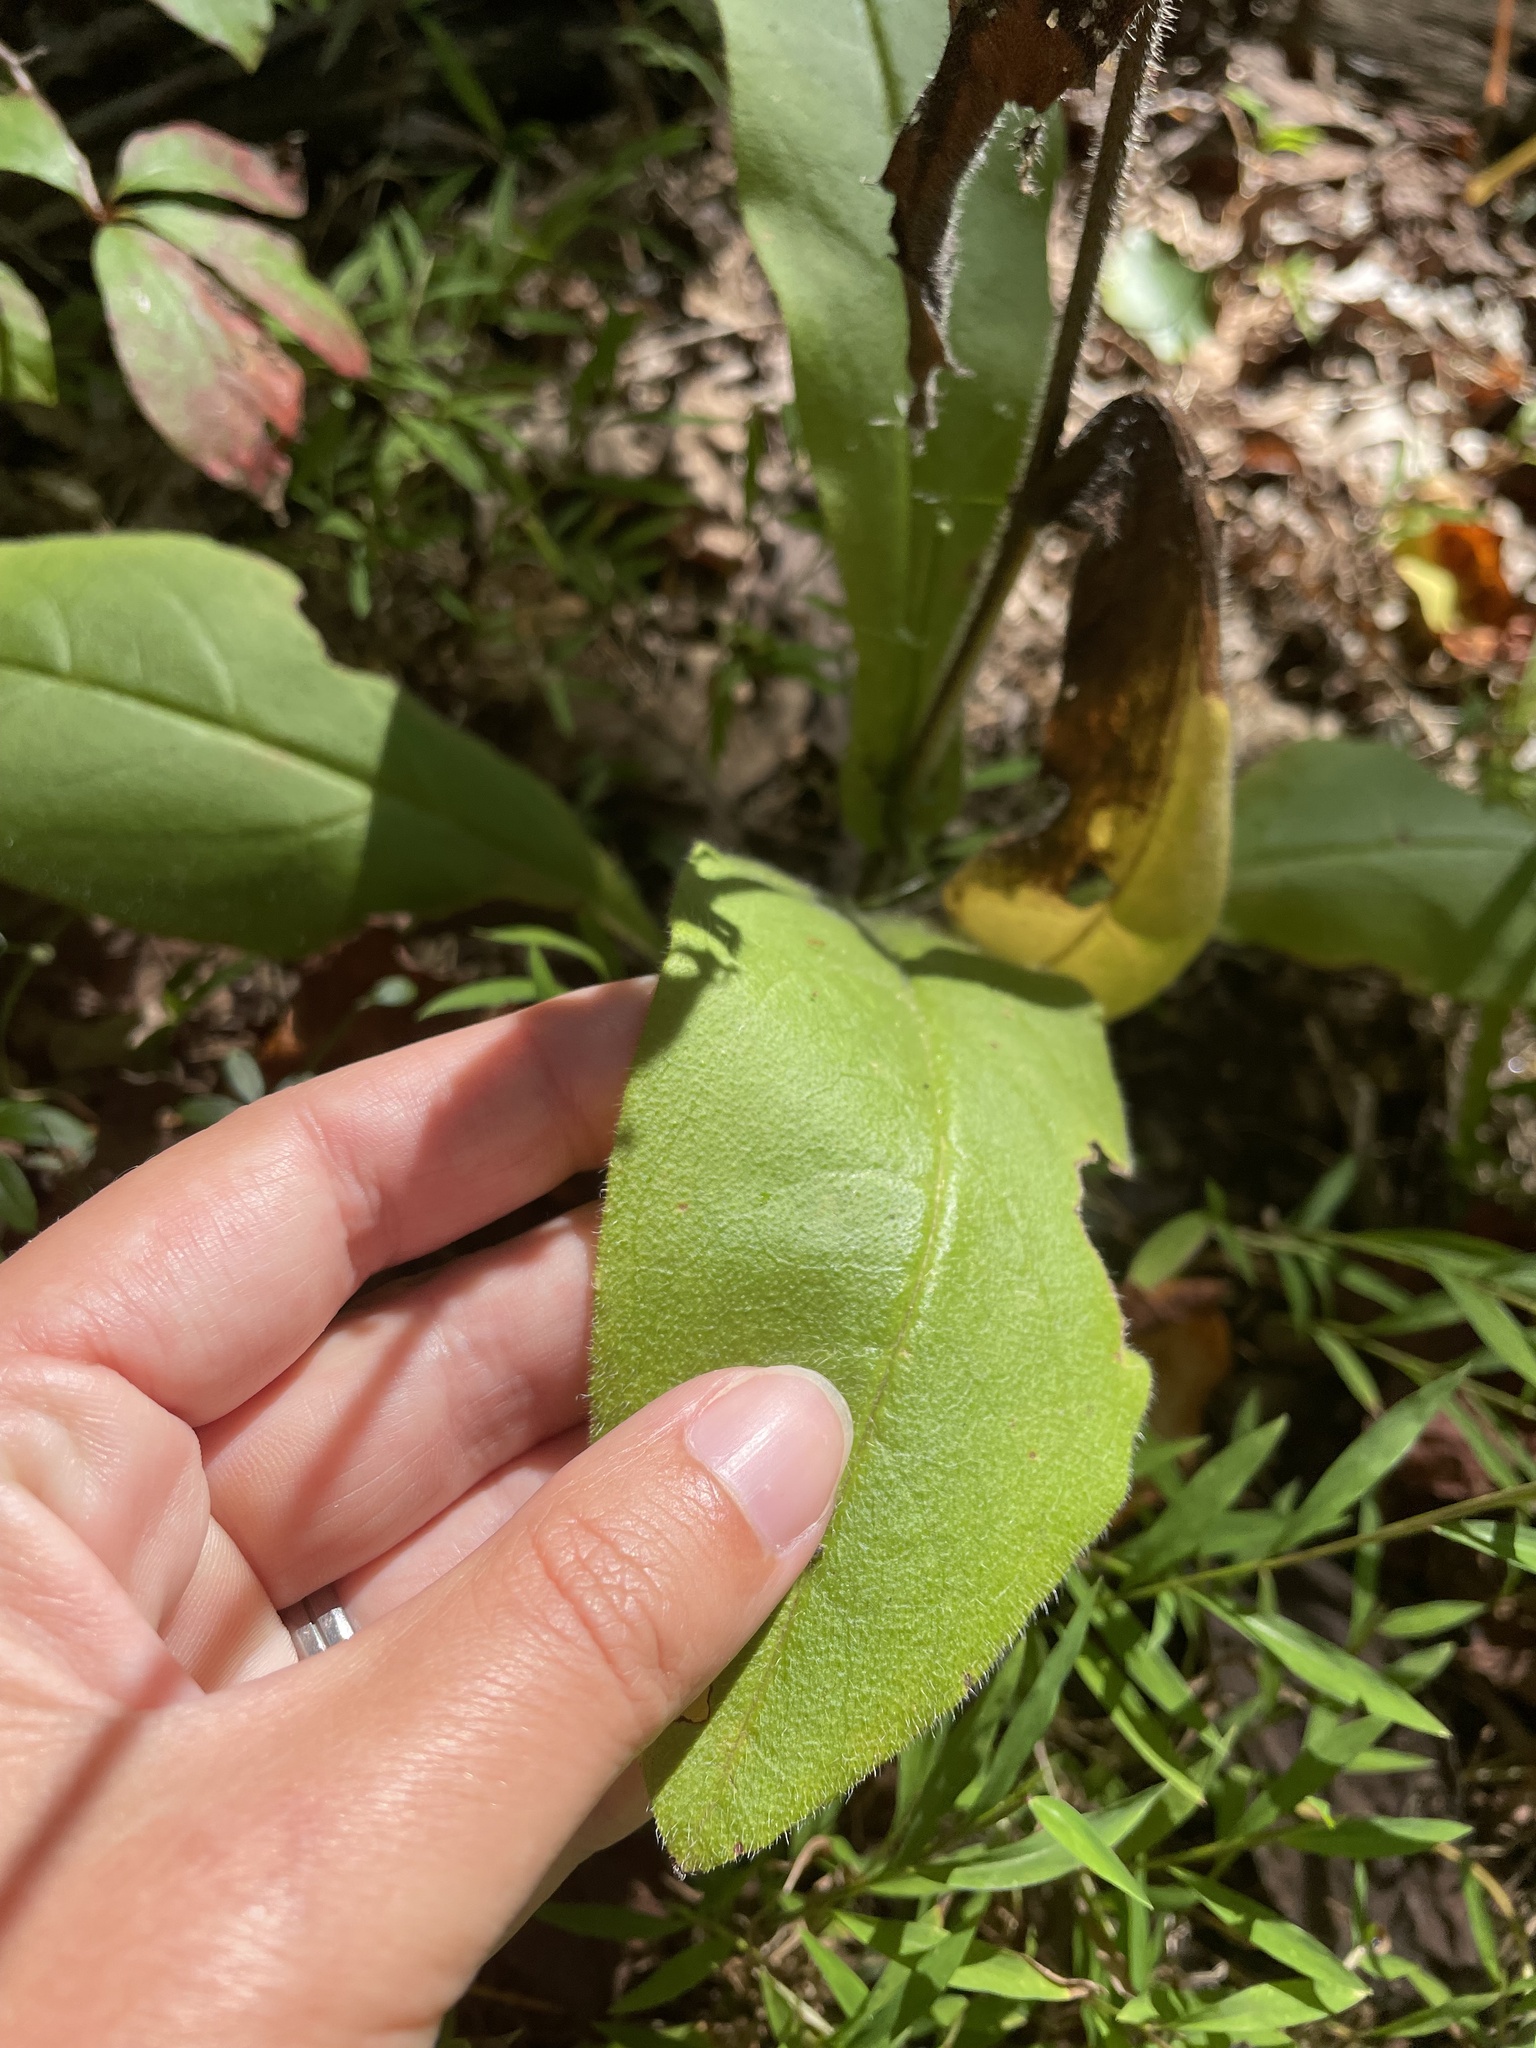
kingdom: Plantae
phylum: Tracheophyta
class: Magnoliopsida
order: Boraginales
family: Boraginaceae
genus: Andersonglossum
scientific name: Andersonglossum virginianum
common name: Wild comfrey
